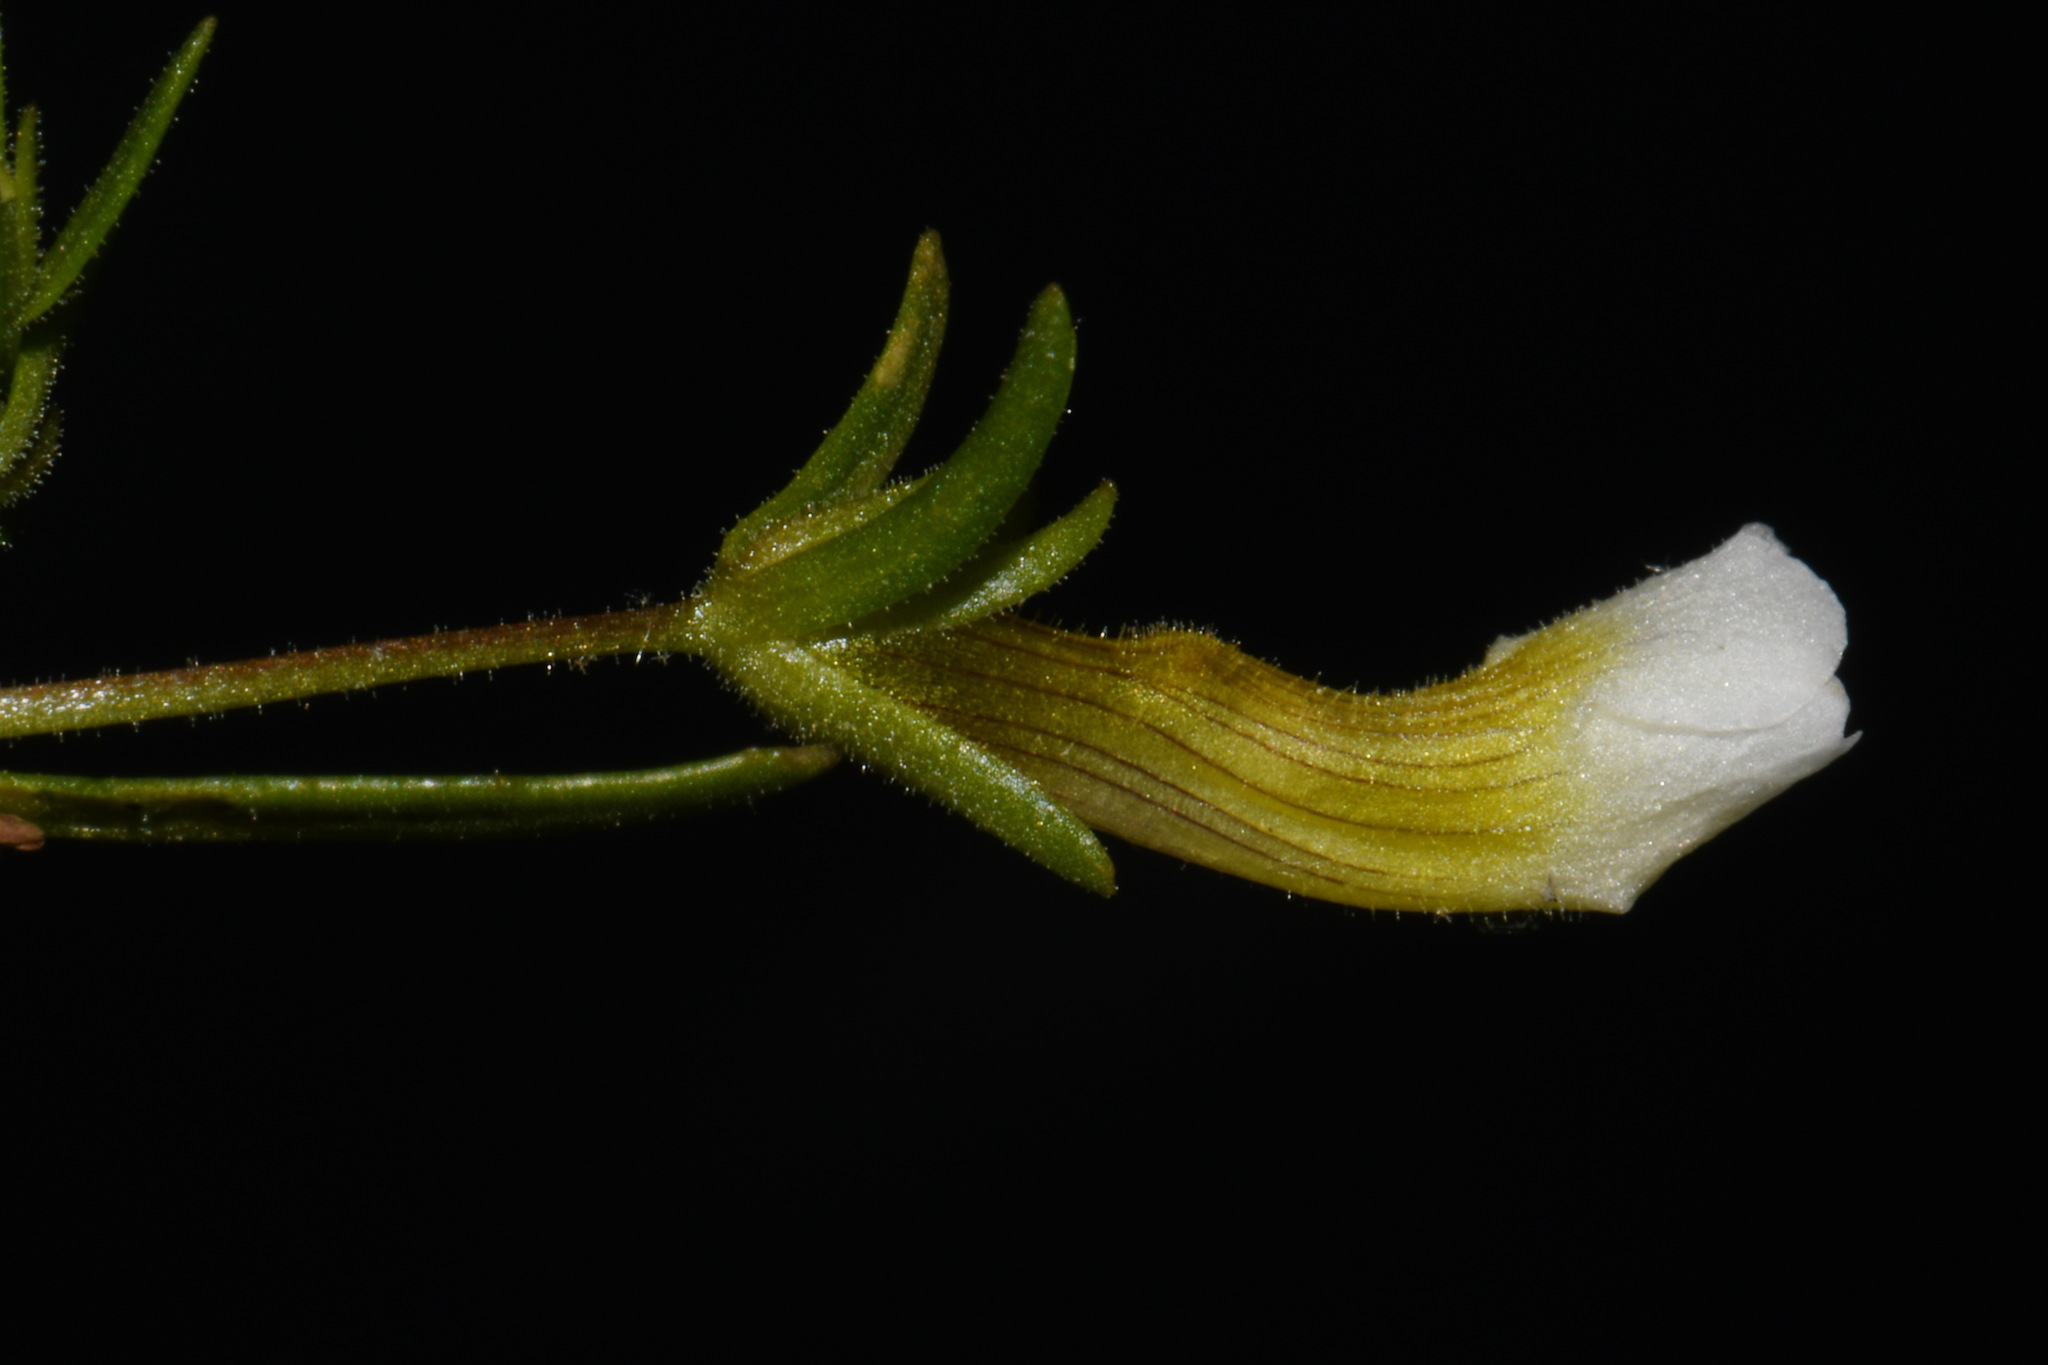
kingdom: Plantae
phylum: Tracheophyta
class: Magnoliopsida
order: Lamiales
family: Plantaginaceae
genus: Gratiola
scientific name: Gratiola quartermaniae
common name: Quarterman's hedge-hyssop
